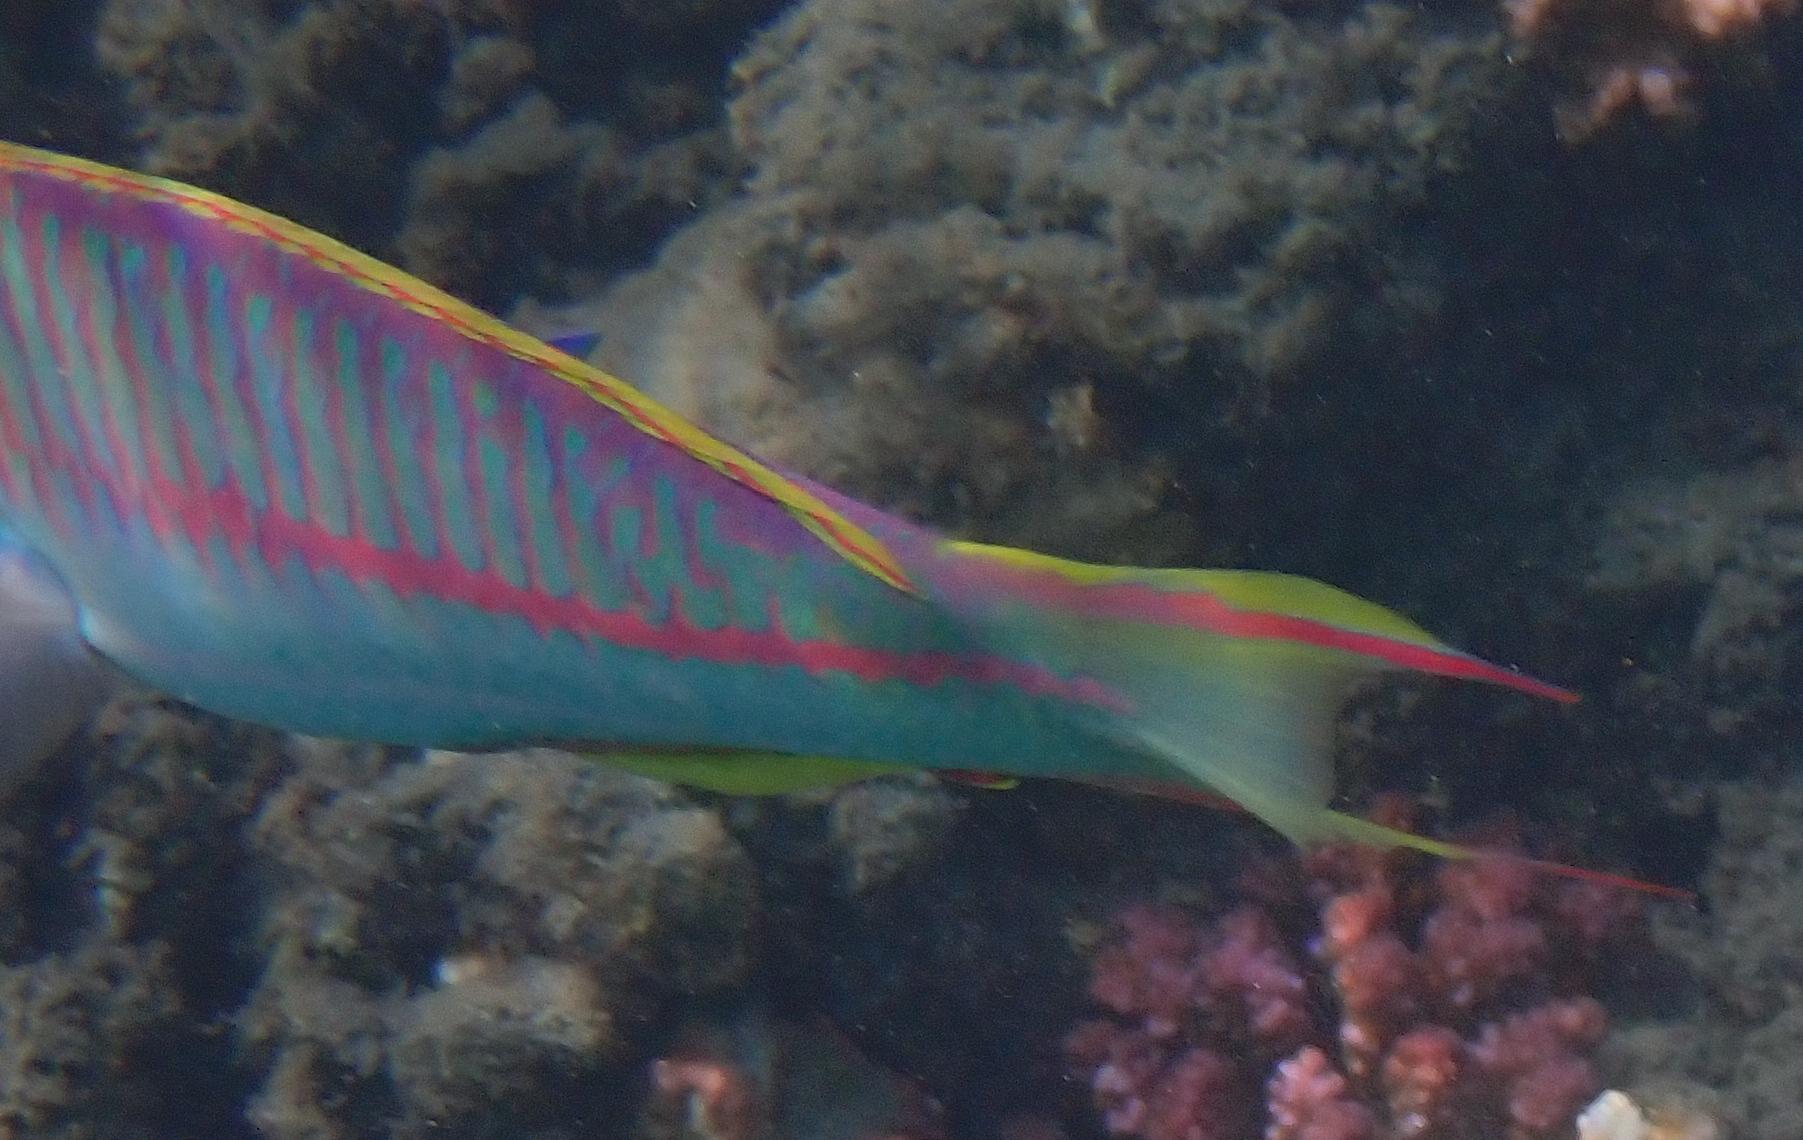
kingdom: Animalia
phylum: Chordata
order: Perciformes
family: Labridae
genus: Thalassoma
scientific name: Thalassoma rueppellii
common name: Klunzinger's wrasse
